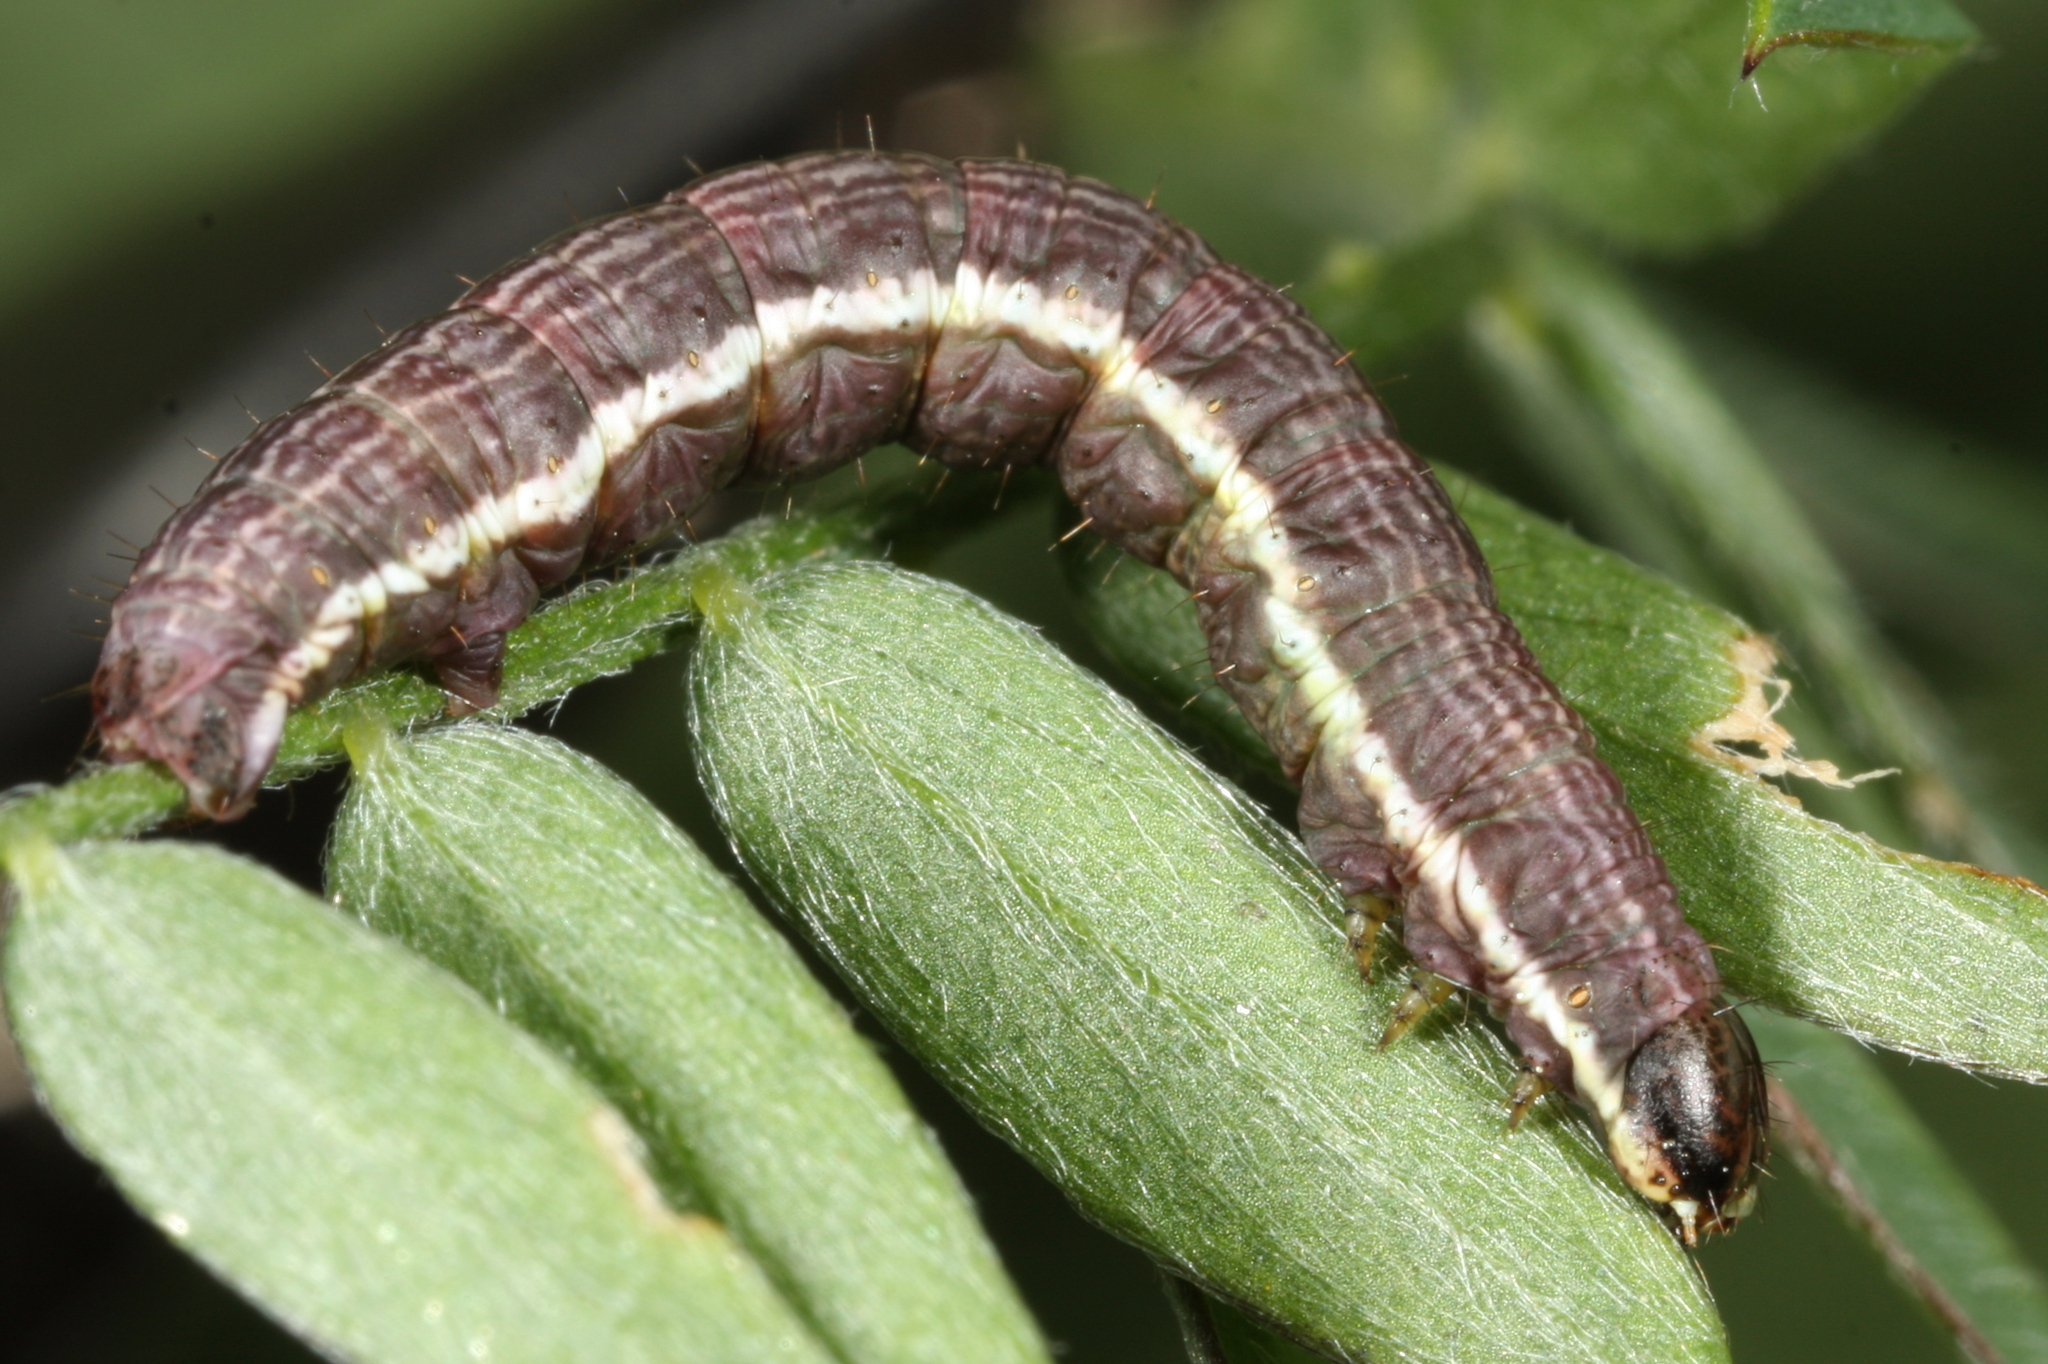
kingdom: Animalia
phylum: Arthropoda
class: Insecta
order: Lepidoptera
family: Geometridae
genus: Chiasmia
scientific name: Chiasmia clathrata
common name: Latticed heath
